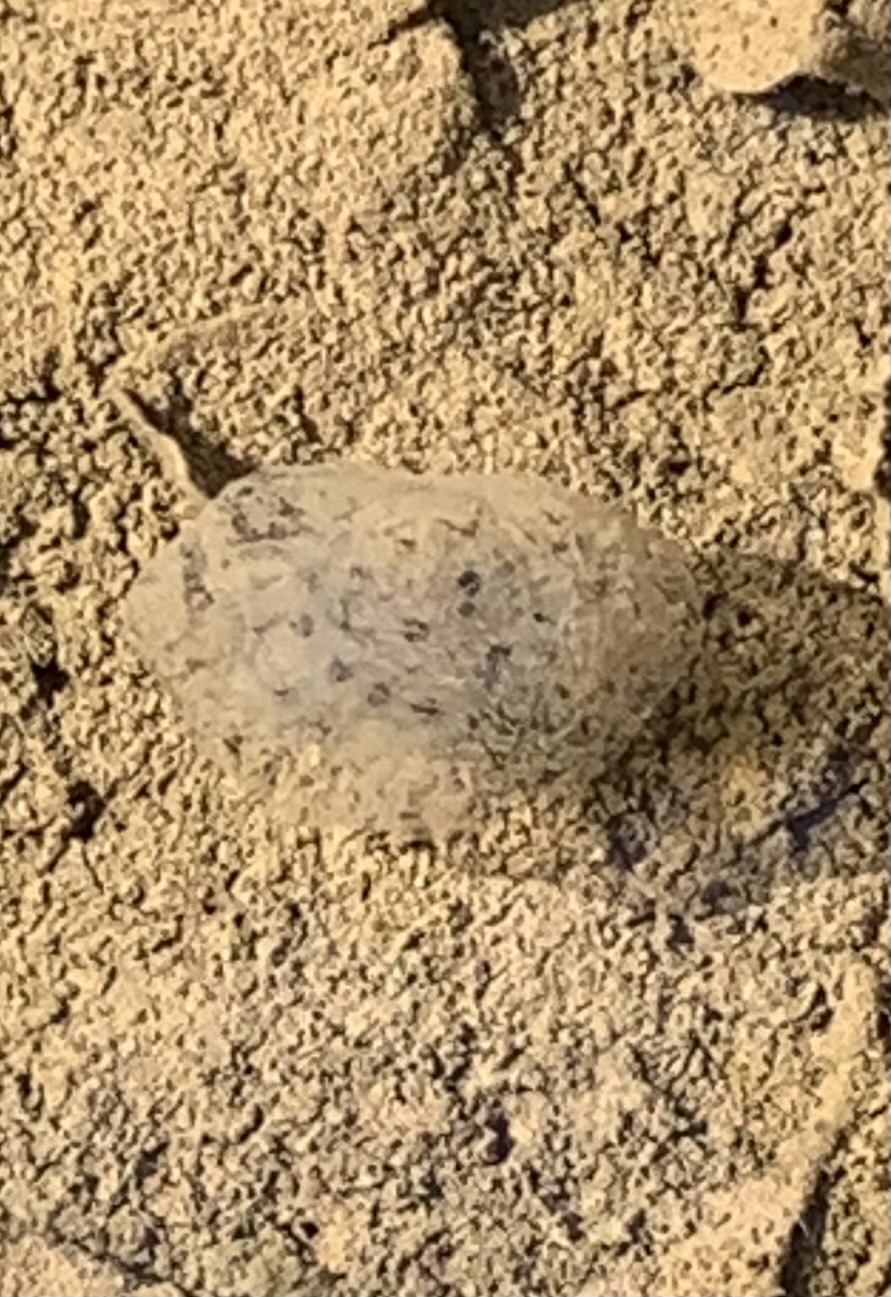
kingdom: Animalia
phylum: Chordata
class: Amphibia
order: Caudata
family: Ambystomatidae
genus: Ambystoma
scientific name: Ambystoma maculatum
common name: Spotted salamander
